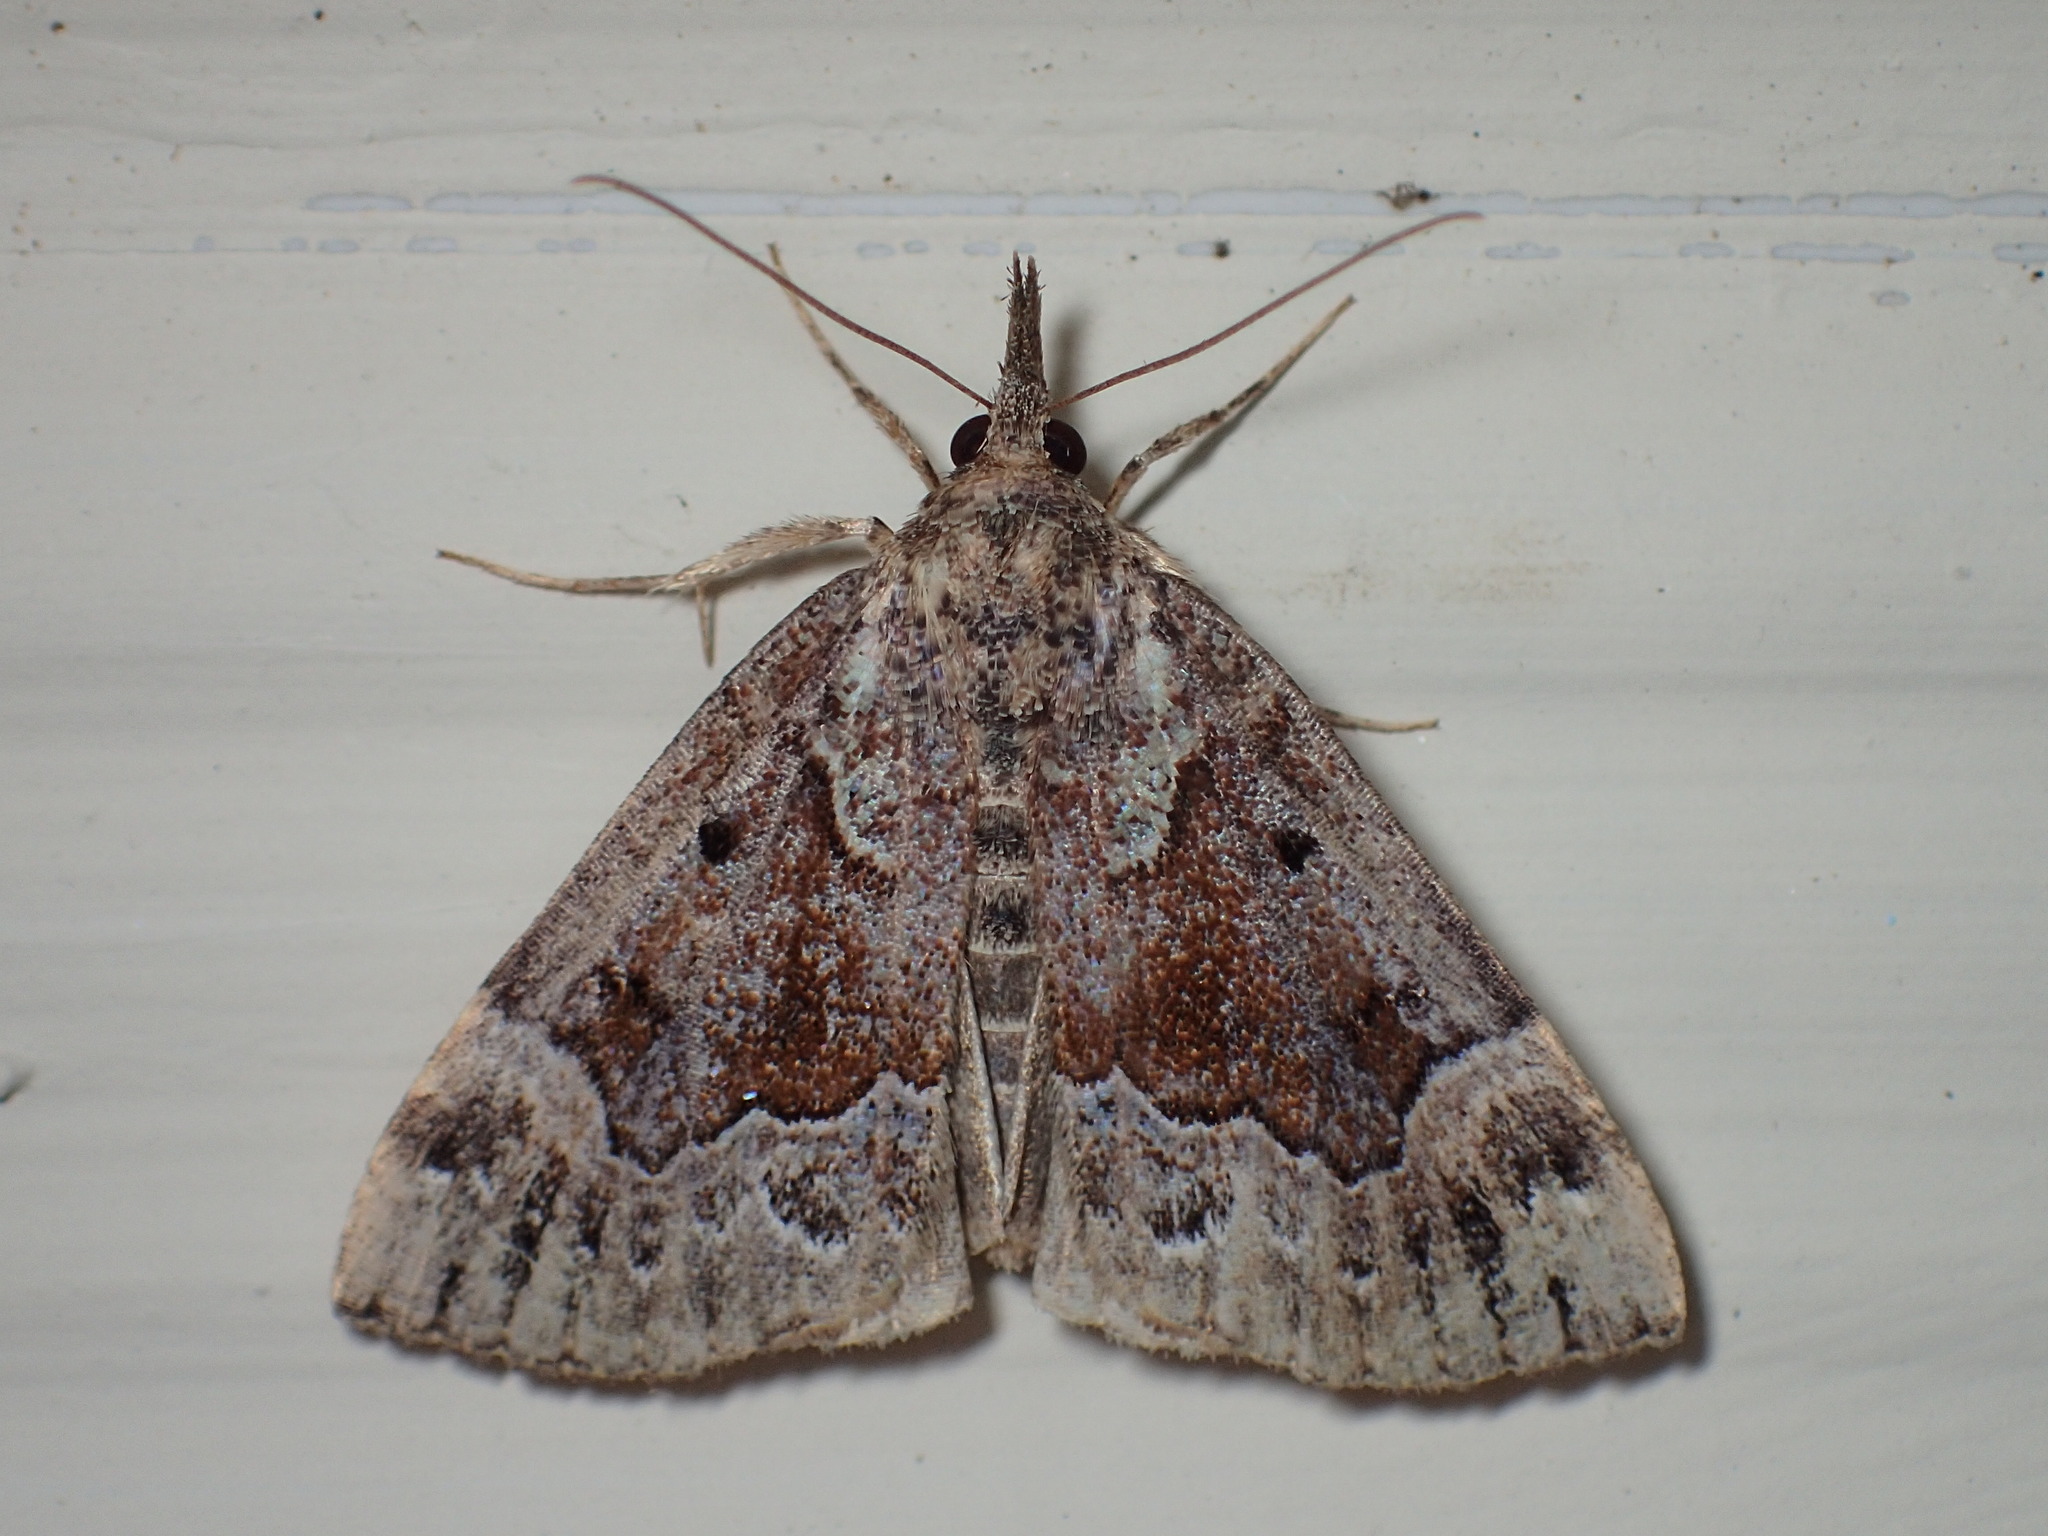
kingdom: Animalia
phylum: Arthropoda
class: Insecta
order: Lepidoptera
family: Erebidae
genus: Hypena
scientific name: Hypena palparia
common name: Mottled bomolocha moth
